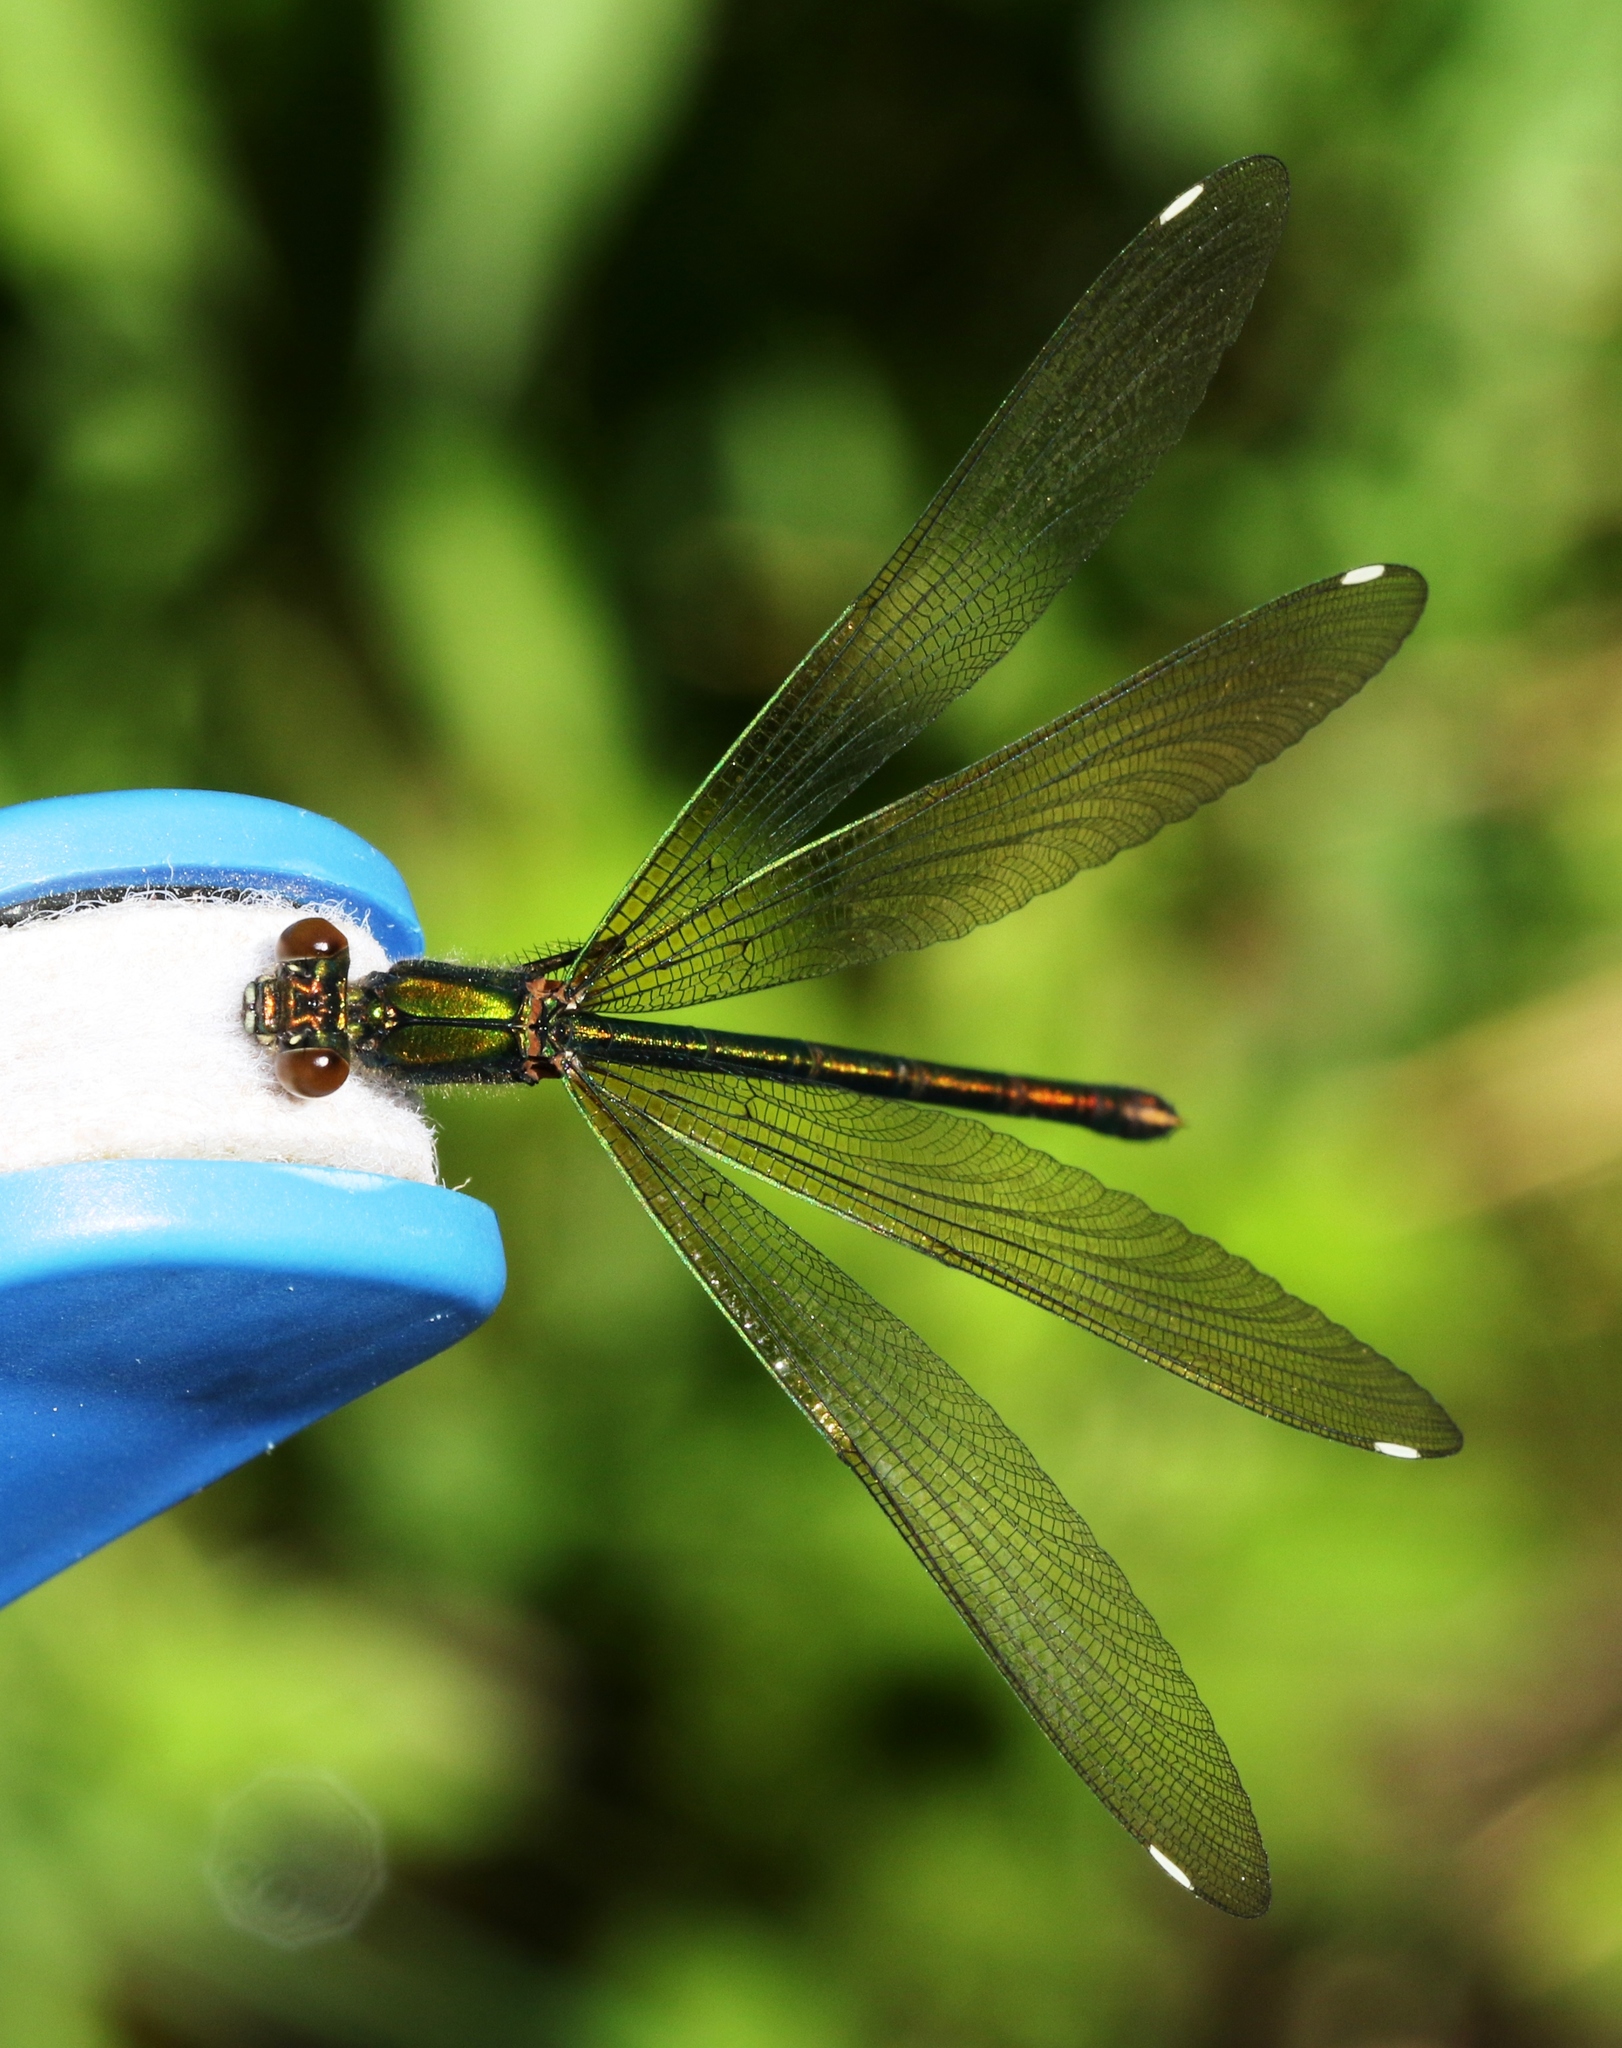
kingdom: Animalia
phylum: Arthropoda
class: Insecta
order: Odonata
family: Calopterygidae
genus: Calopteryx
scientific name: Calopteryx aequabilis
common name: River jewelwing
